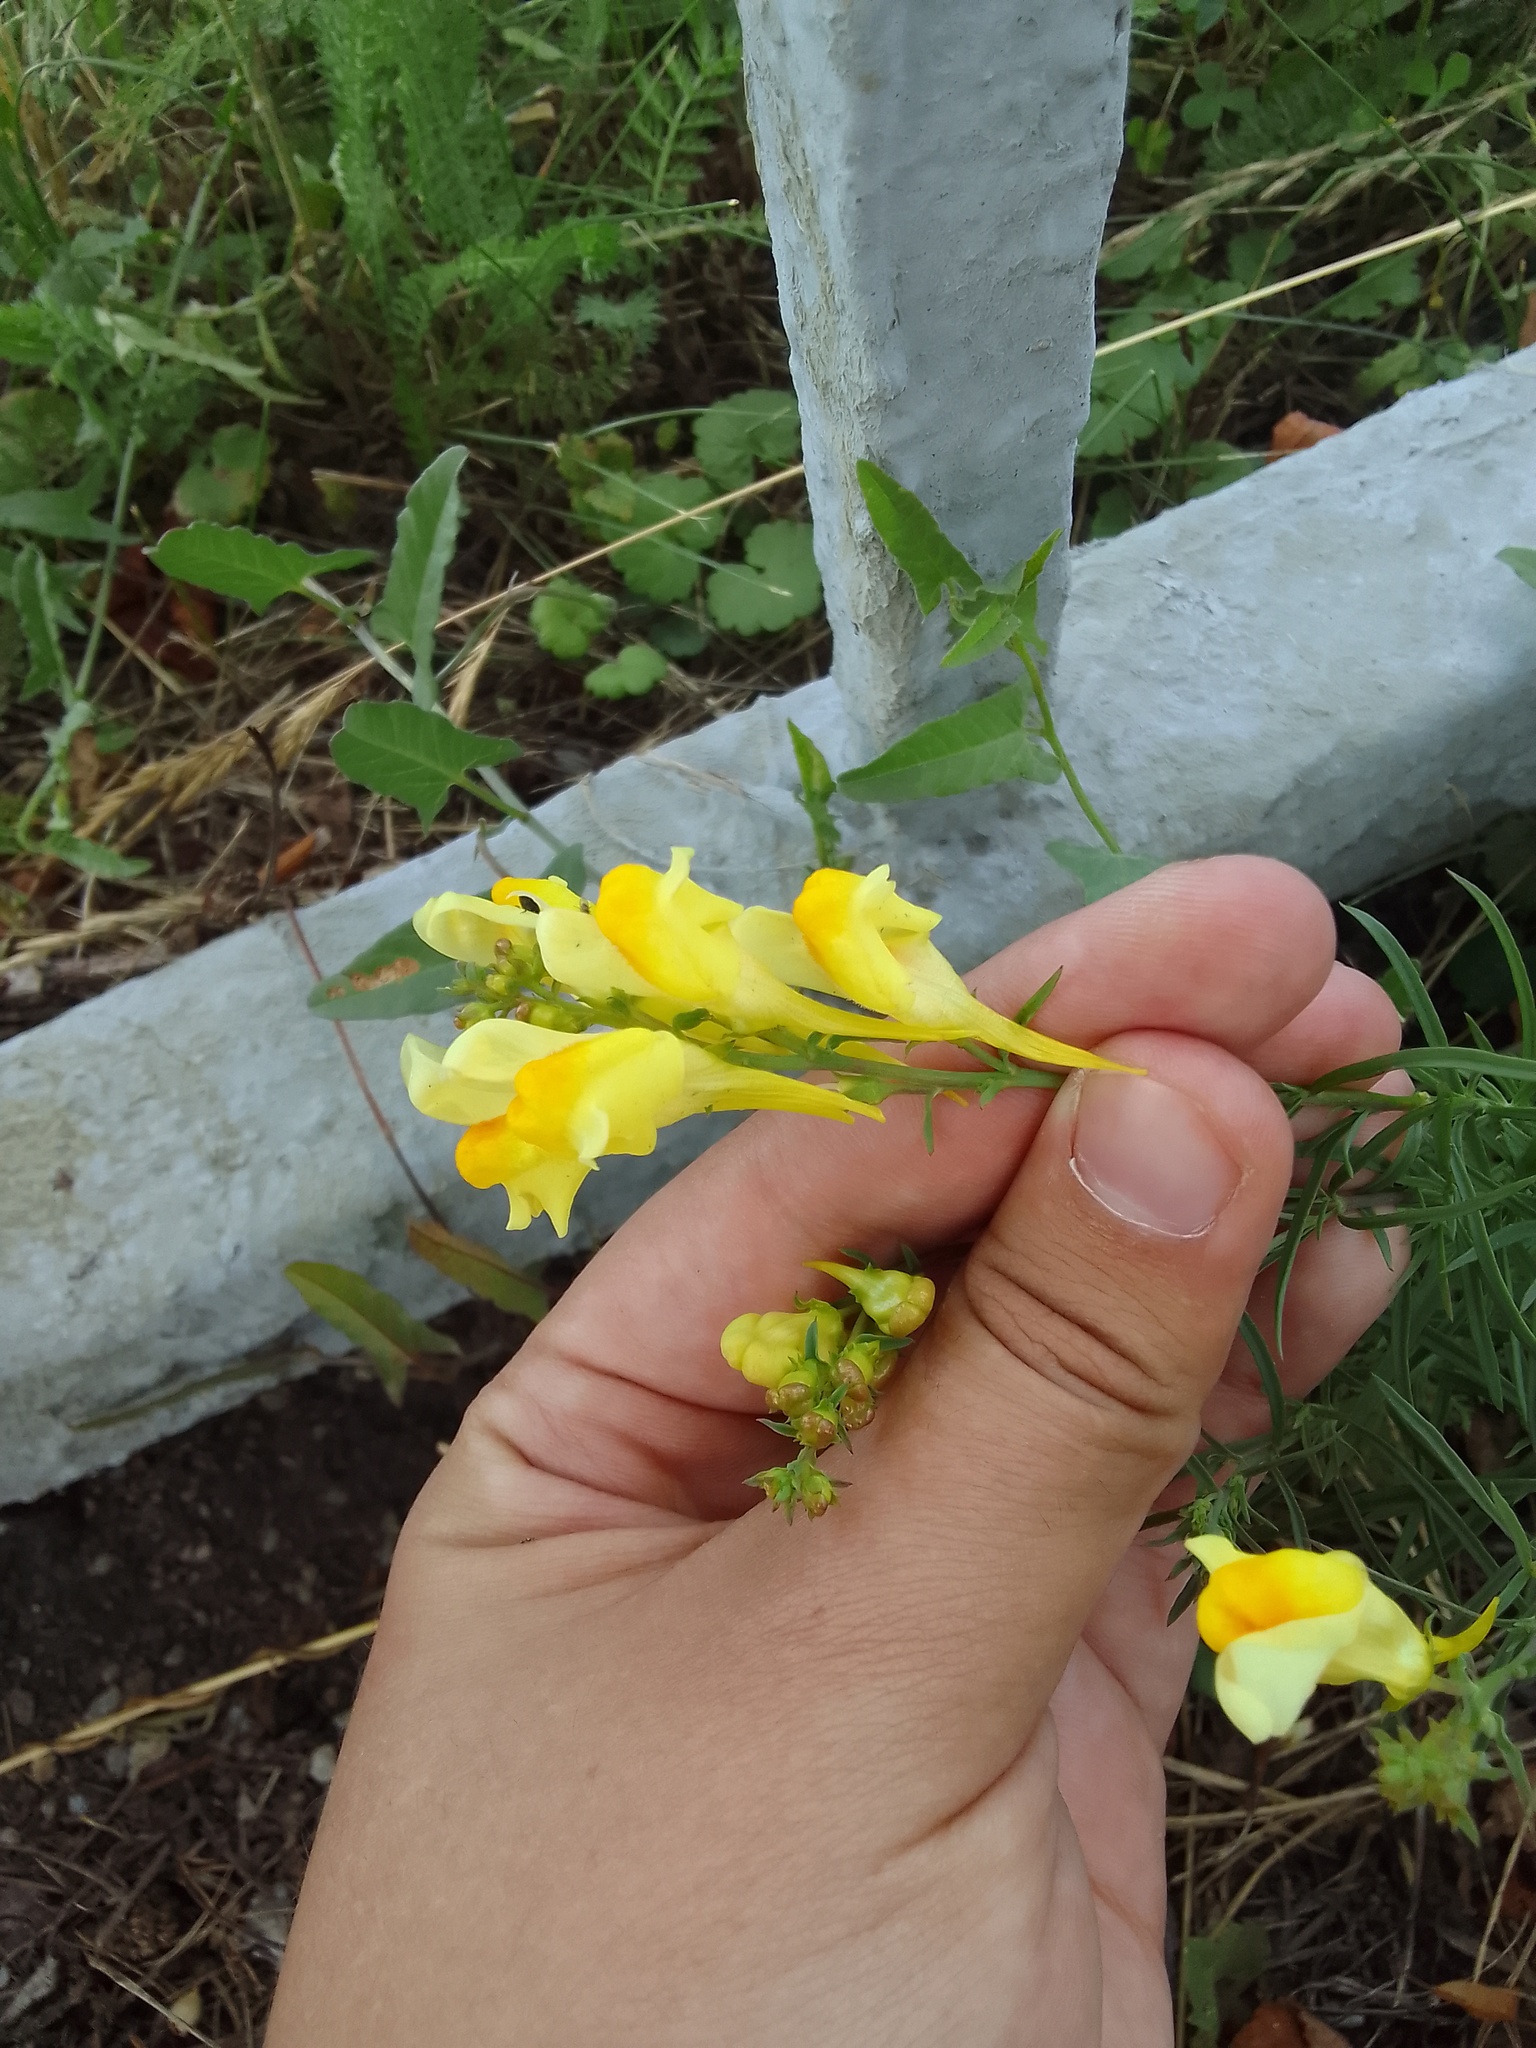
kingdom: Plantae
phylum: Tracheophyta
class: Magnoliopsida
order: Lamiales
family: Plantaginaceae
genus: Linaria
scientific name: Linaria vulgaris
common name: Butter and eggs
